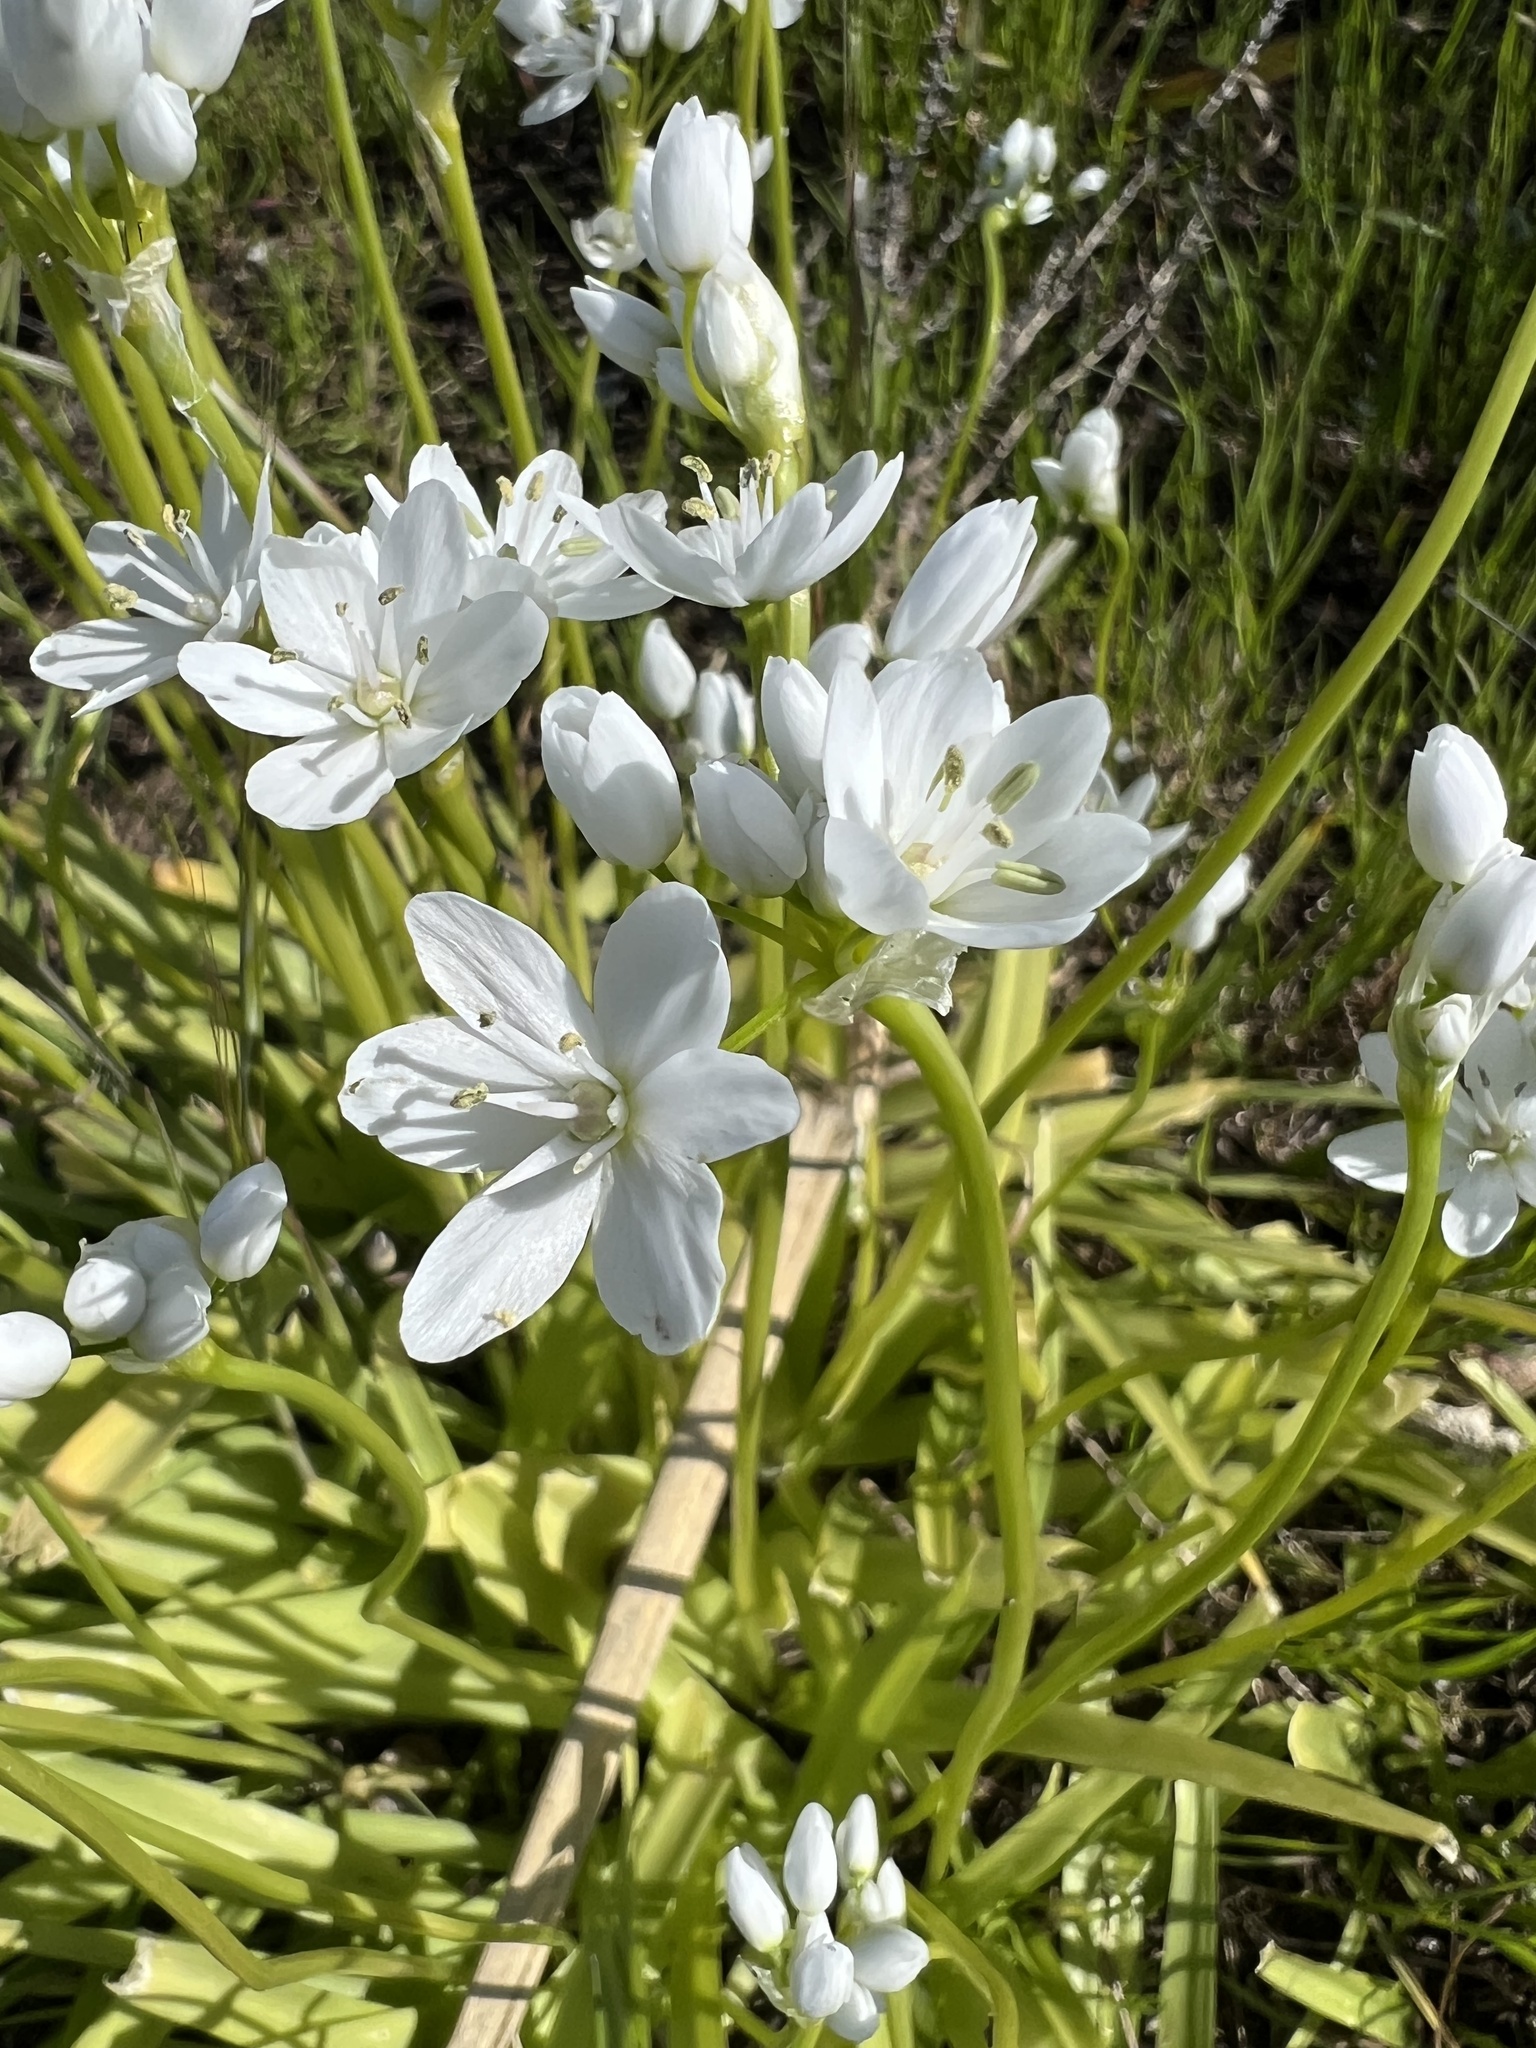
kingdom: Plantae
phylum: Tracheophyta
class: Liliopsida
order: Asparagales
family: Amaryllidaceae
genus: Allium
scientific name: Allium neapolitanum
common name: Neapolitan garlic
